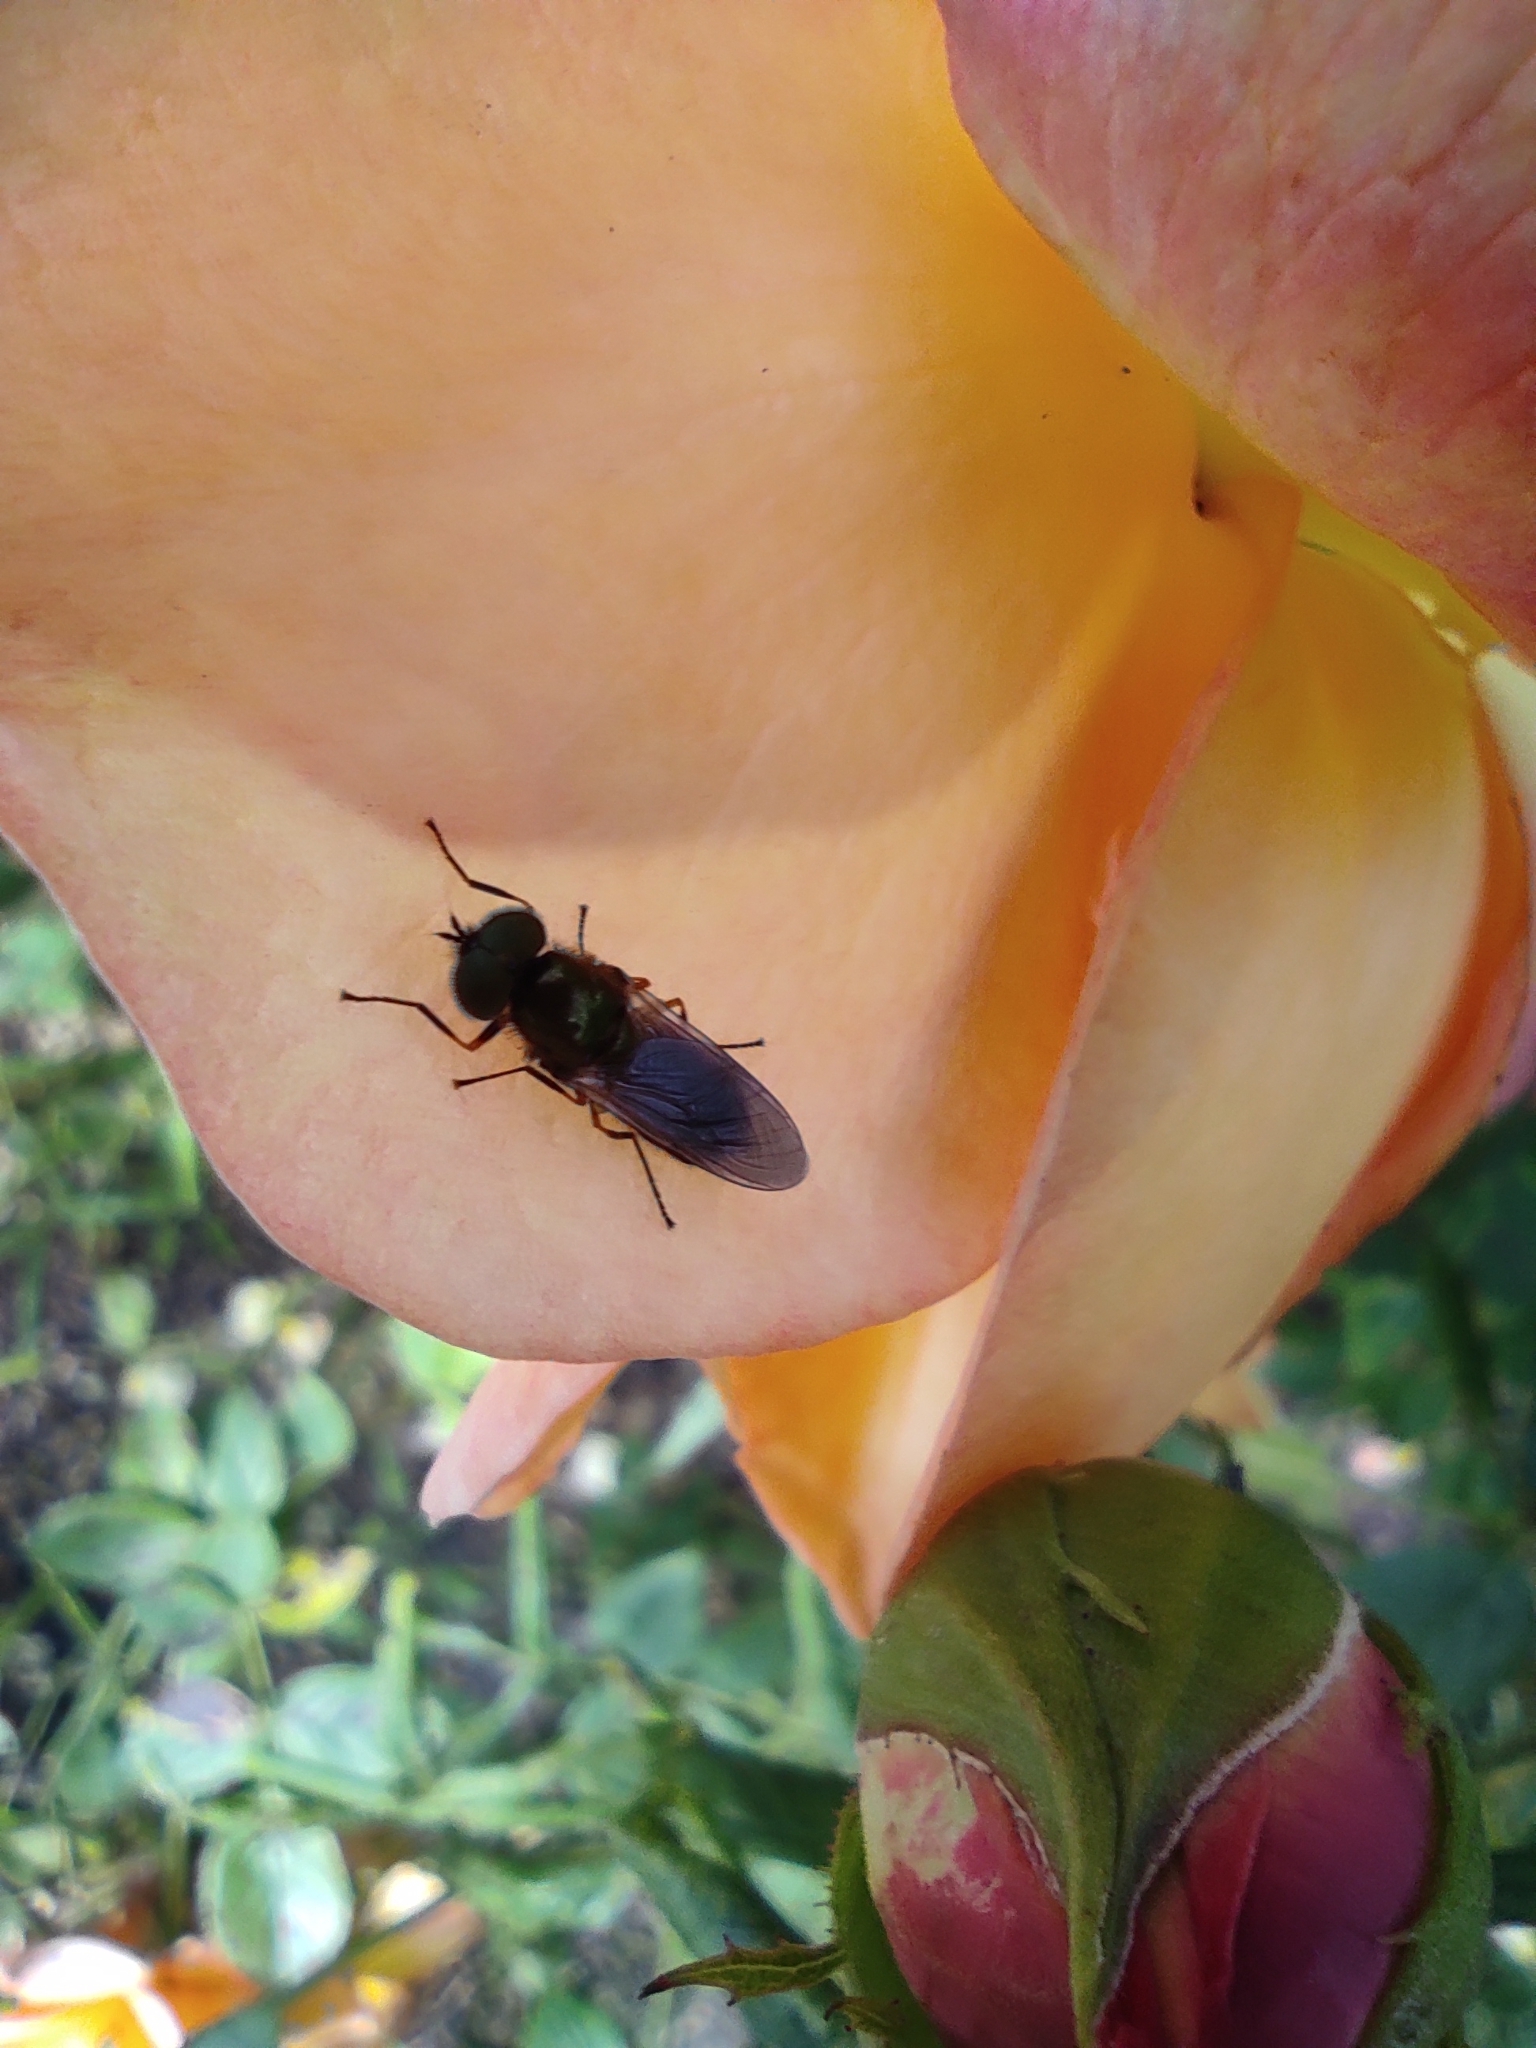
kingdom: Animalia
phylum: Arthropoda
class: Insecta
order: Diptera
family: Stratiomyidae
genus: Chloromyia
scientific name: Chloromyia formosa
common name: Soldier fly
